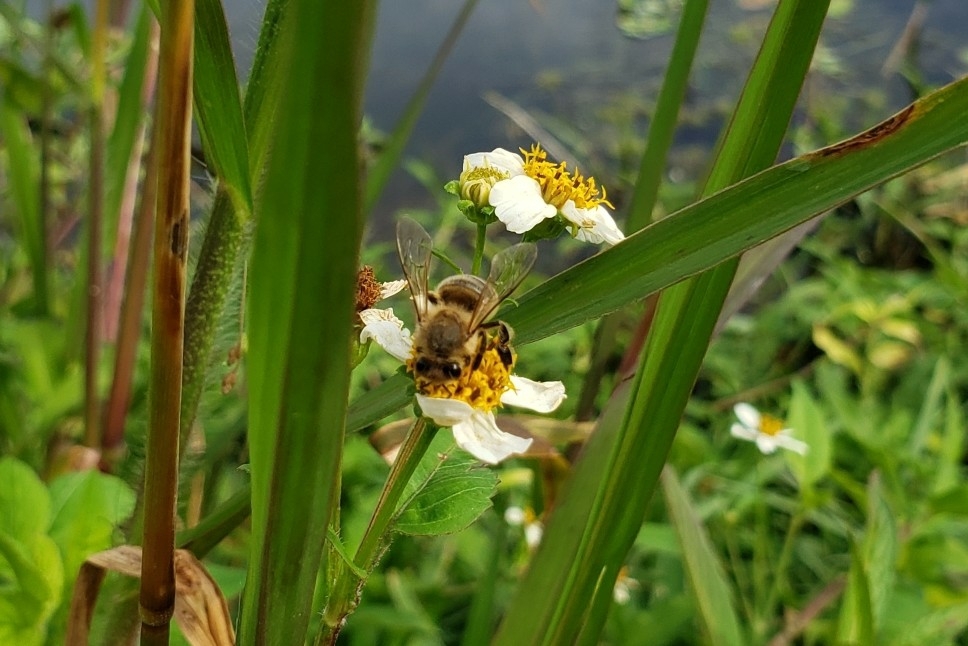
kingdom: Animalia
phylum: Arthropoda
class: Insecta
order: Hymenoptera
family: Apidae
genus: Apis
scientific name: Apis mellifera
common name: Honey bee
